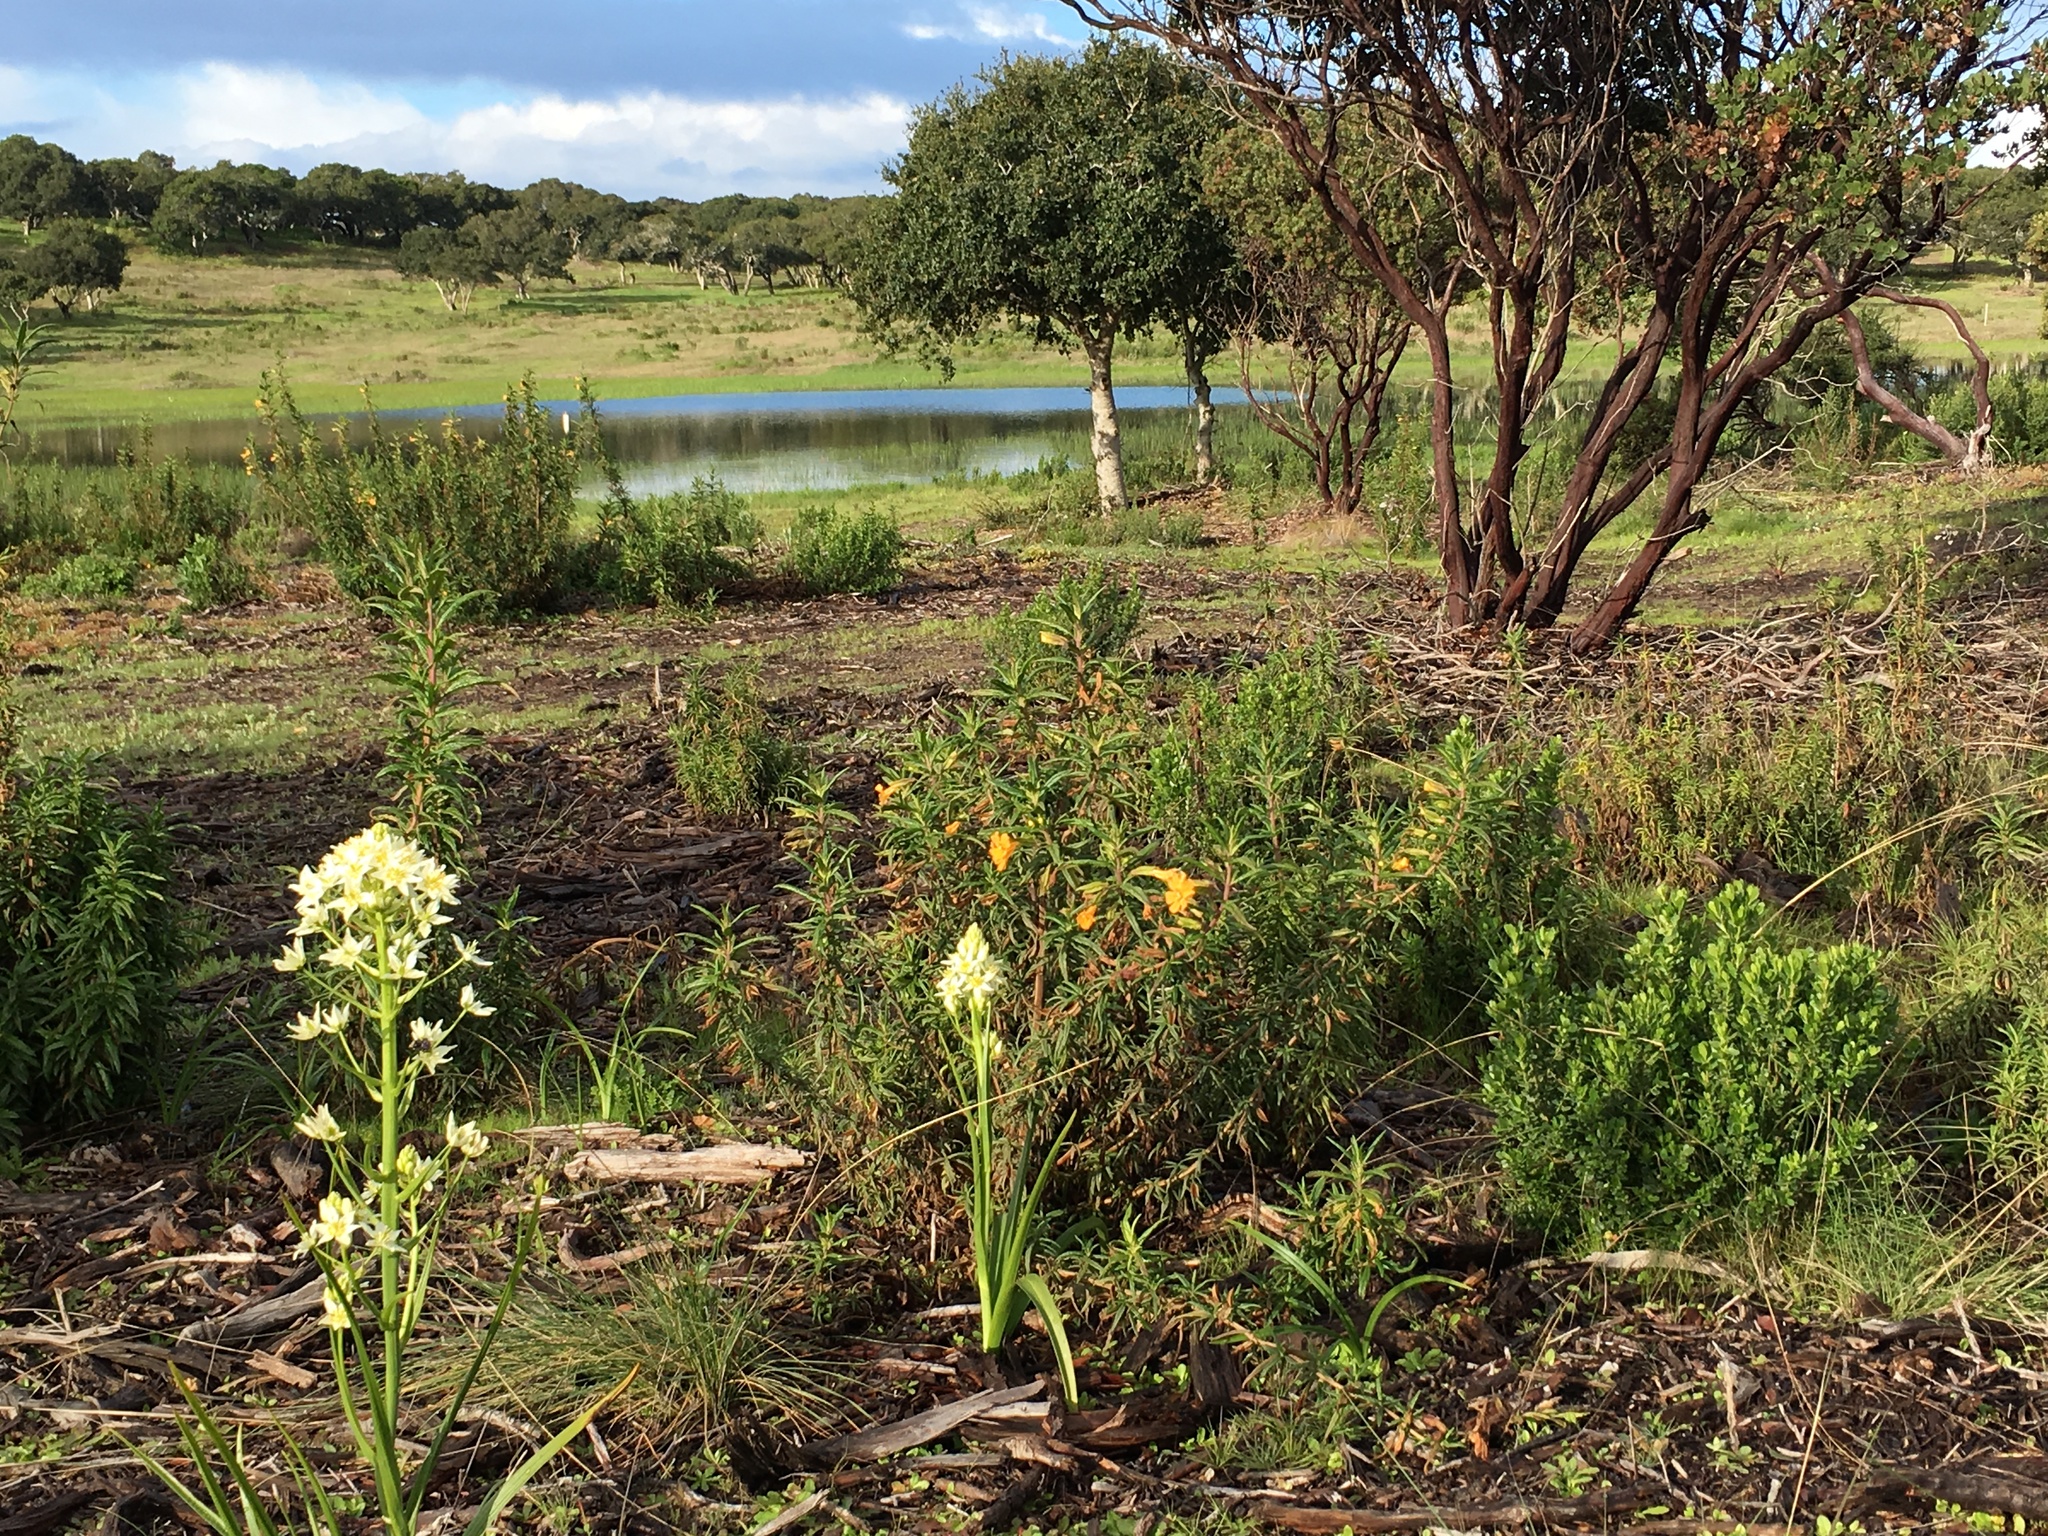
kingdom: Plantae
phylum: Tracheophyta
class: Liliopsida
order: Liliales
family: Melanthiaceae
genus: Toxicoscordion
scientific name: Toxicoscordion fremontii
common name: Fremont's death camas
